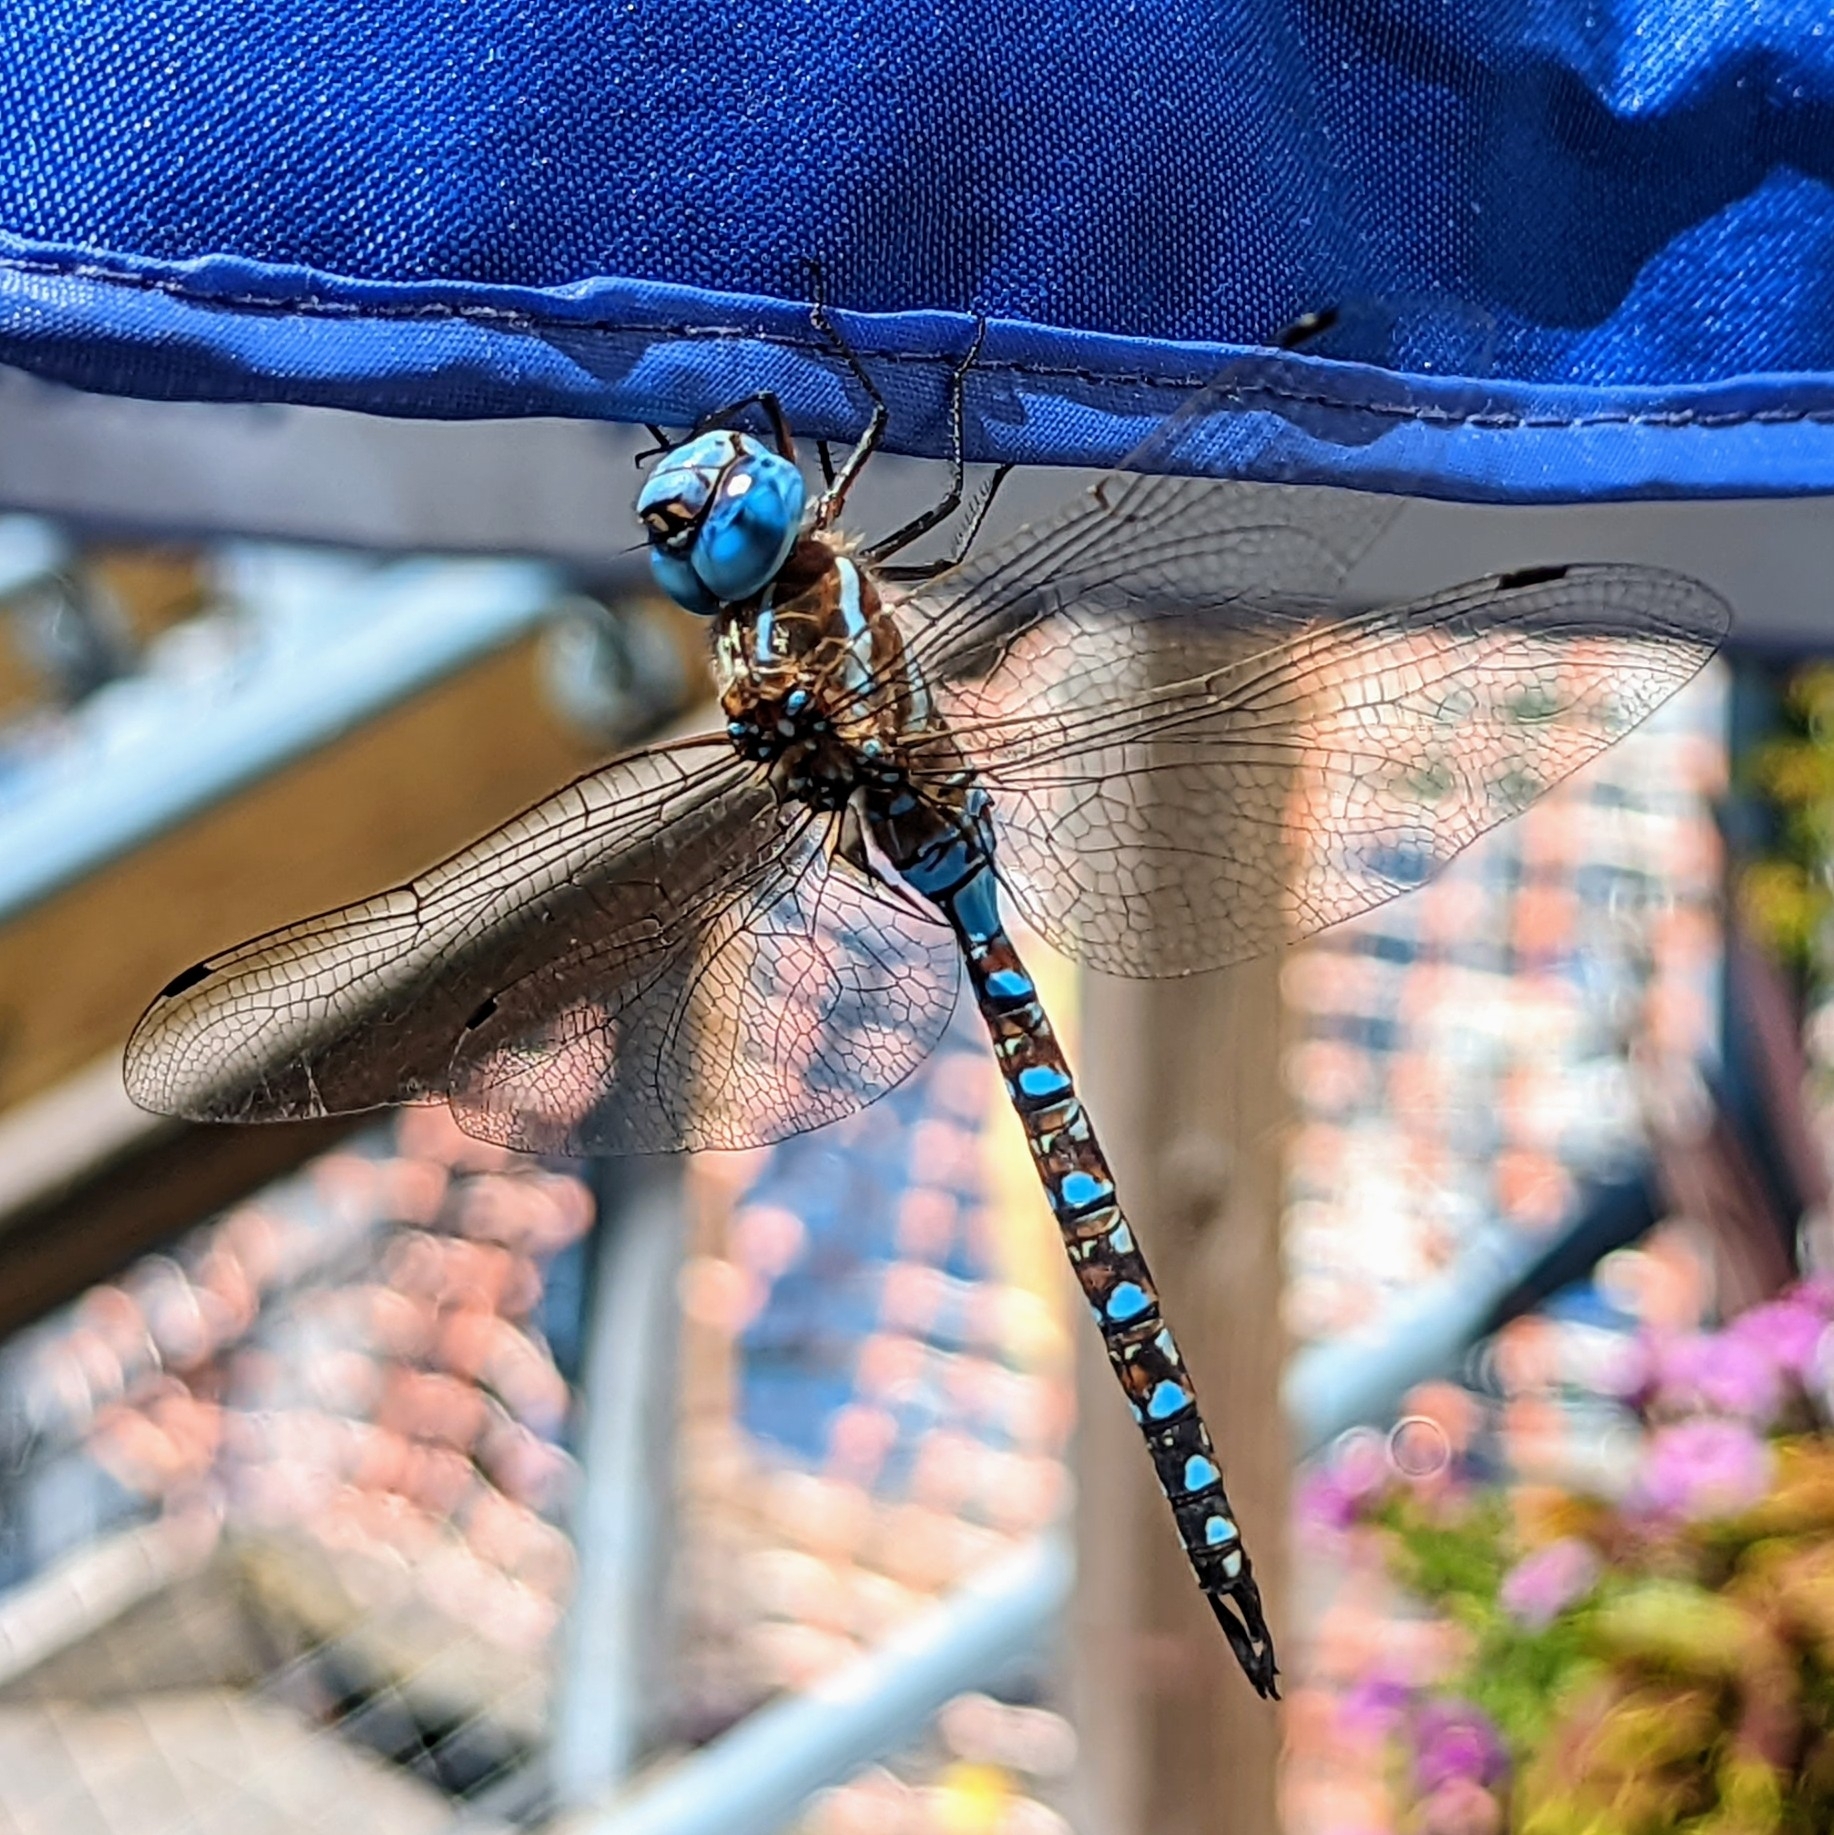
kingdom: Animalia
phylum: Arthropoda
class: Insecta
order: Odonata
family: Aeshnidae
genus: Rhionaeschna
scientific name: Rhionaeschna multicolor
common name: Blue-eyed darner
